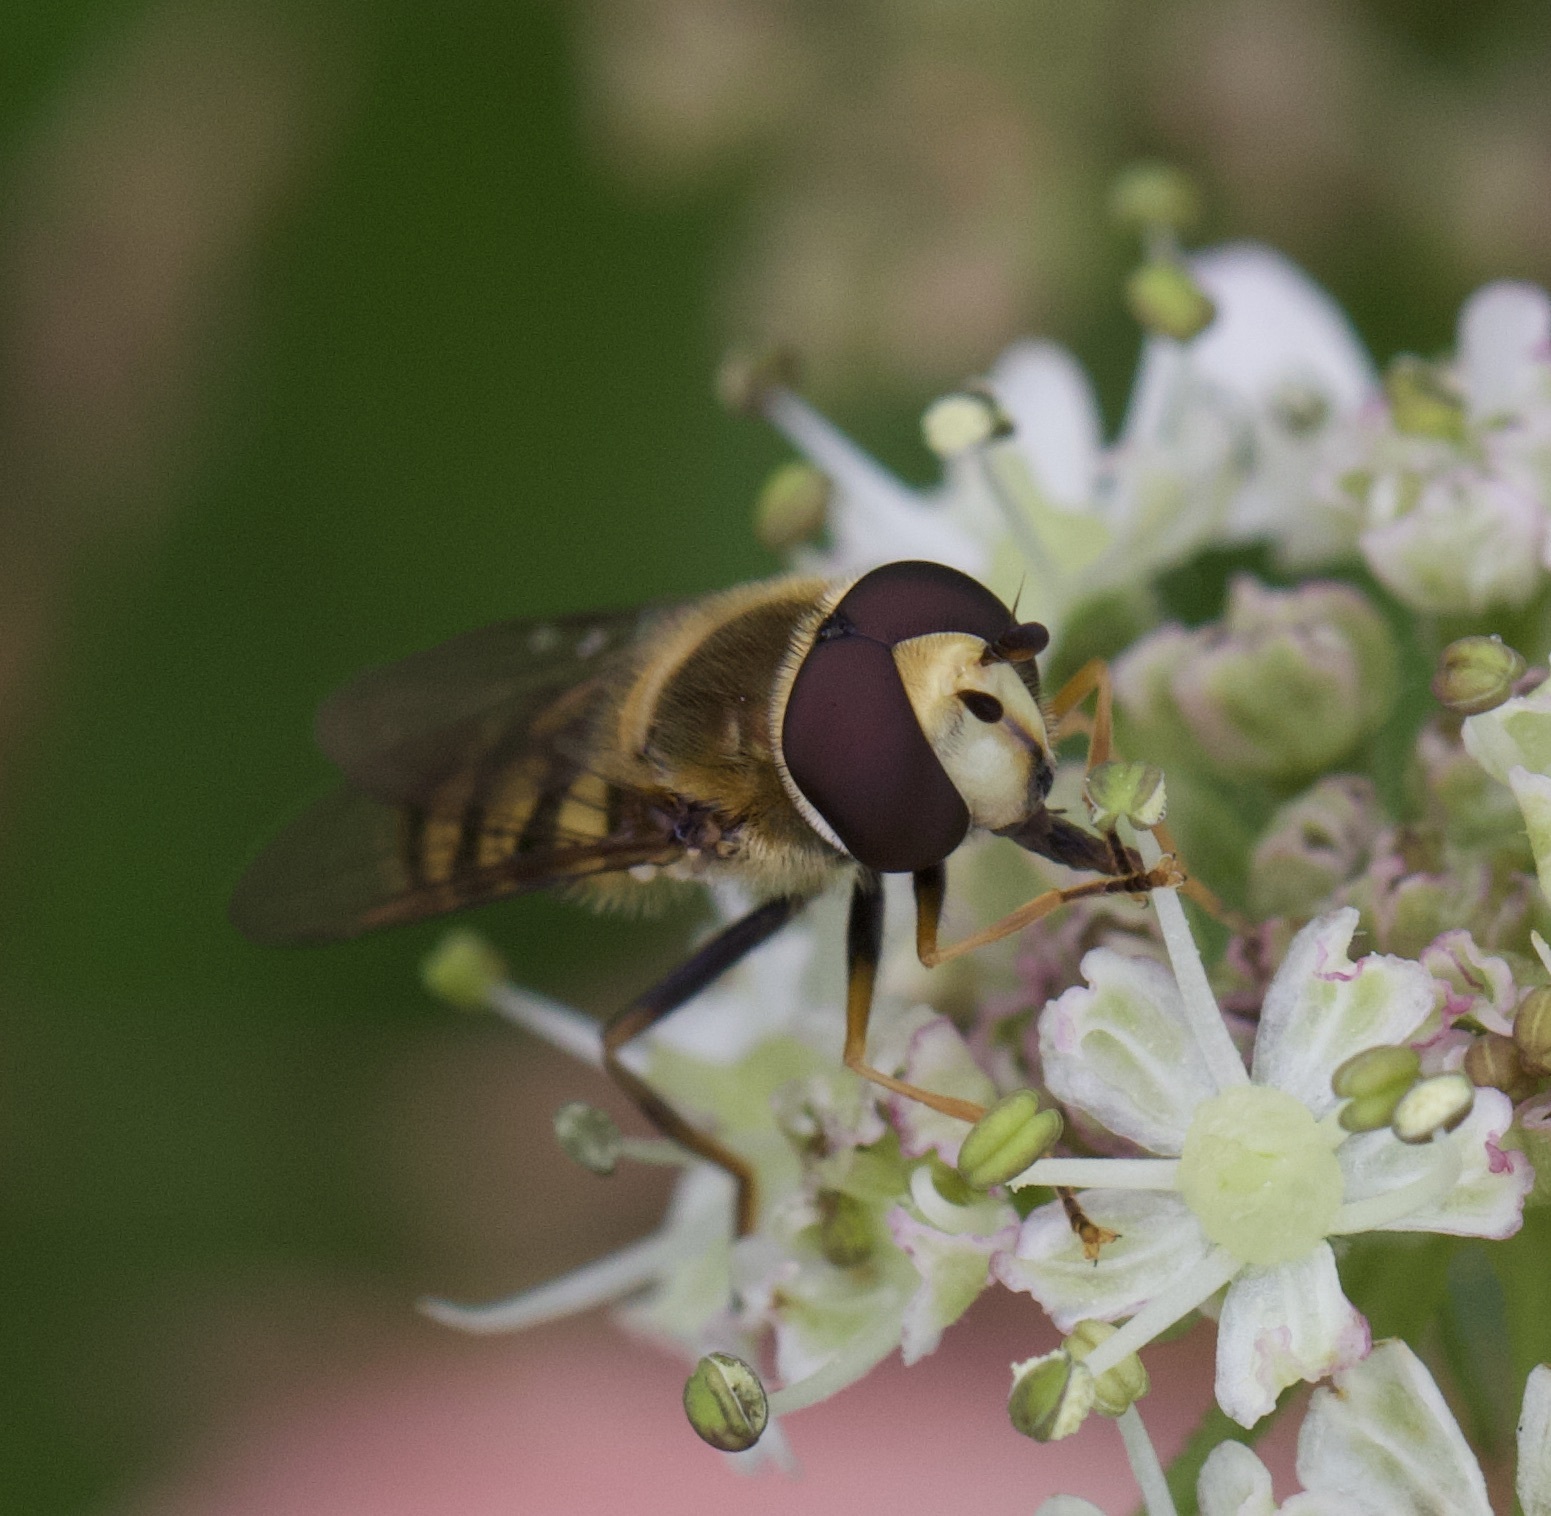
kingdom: Animalia
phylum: Arthropoda
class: Insecta
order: Diptera
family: Syrphidae
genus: Eupeodes
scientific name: Eupeodes corollae
